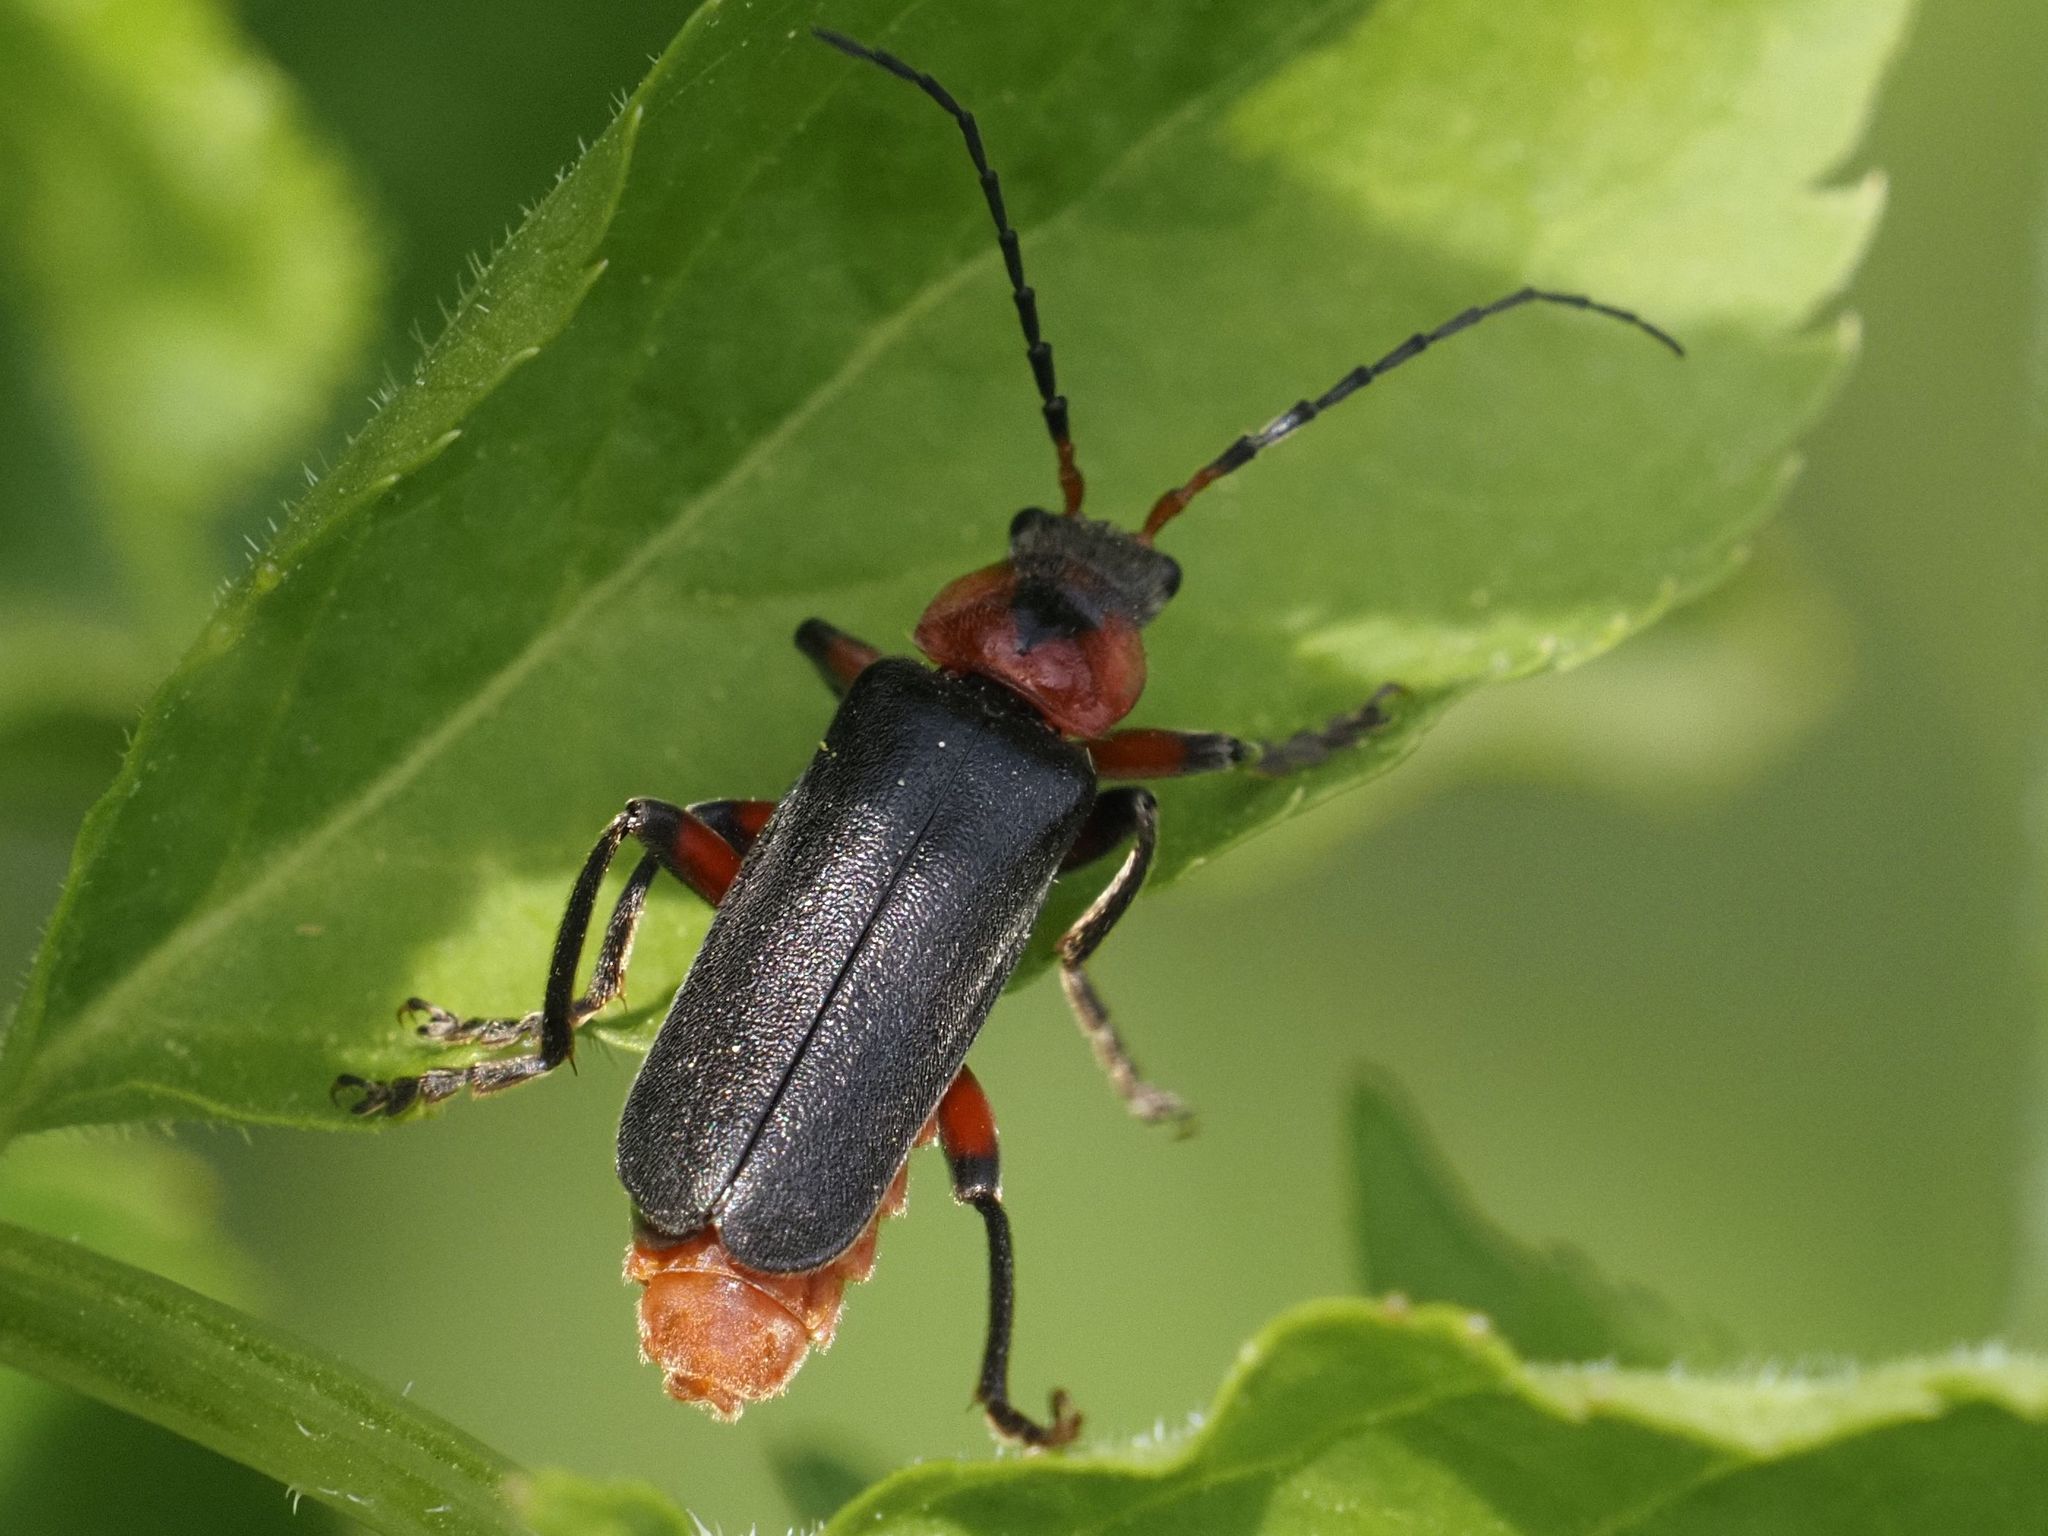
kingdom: Animalia
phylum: Arthropoda
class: Insecta
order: Coleoptera
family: Cantharidae
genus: Cantharis
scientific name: Cantharis rustica
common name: Soldier beetle
